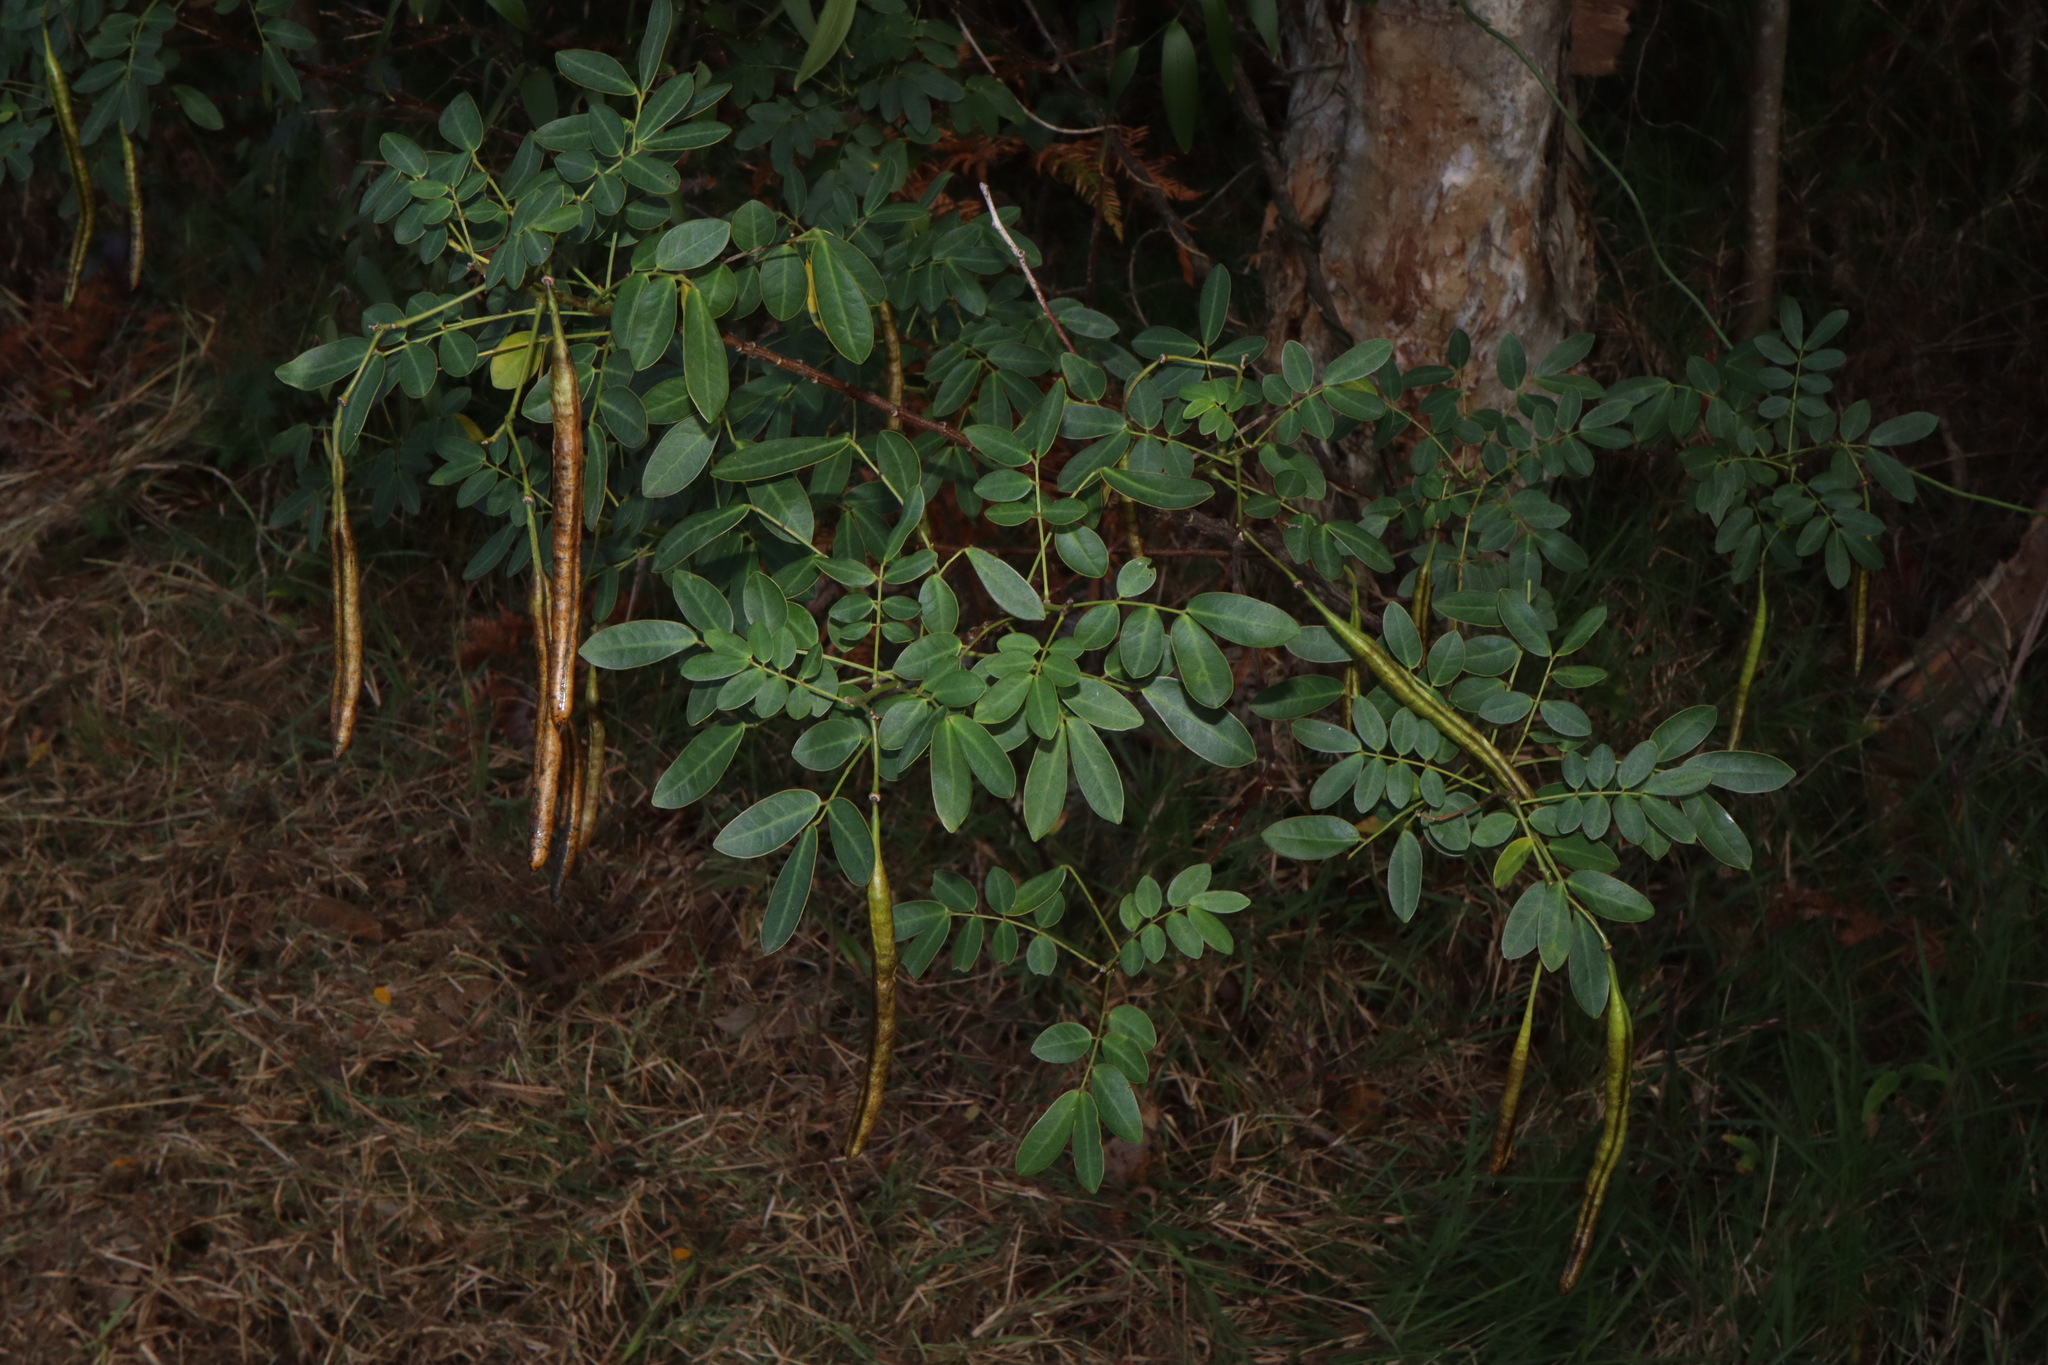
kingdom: Plantae
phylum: Tracheophyta
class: Magnoliopsida
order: Fabales
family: Fabaceae
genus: Senna
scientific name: Senna pendula
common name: Easter cassia
